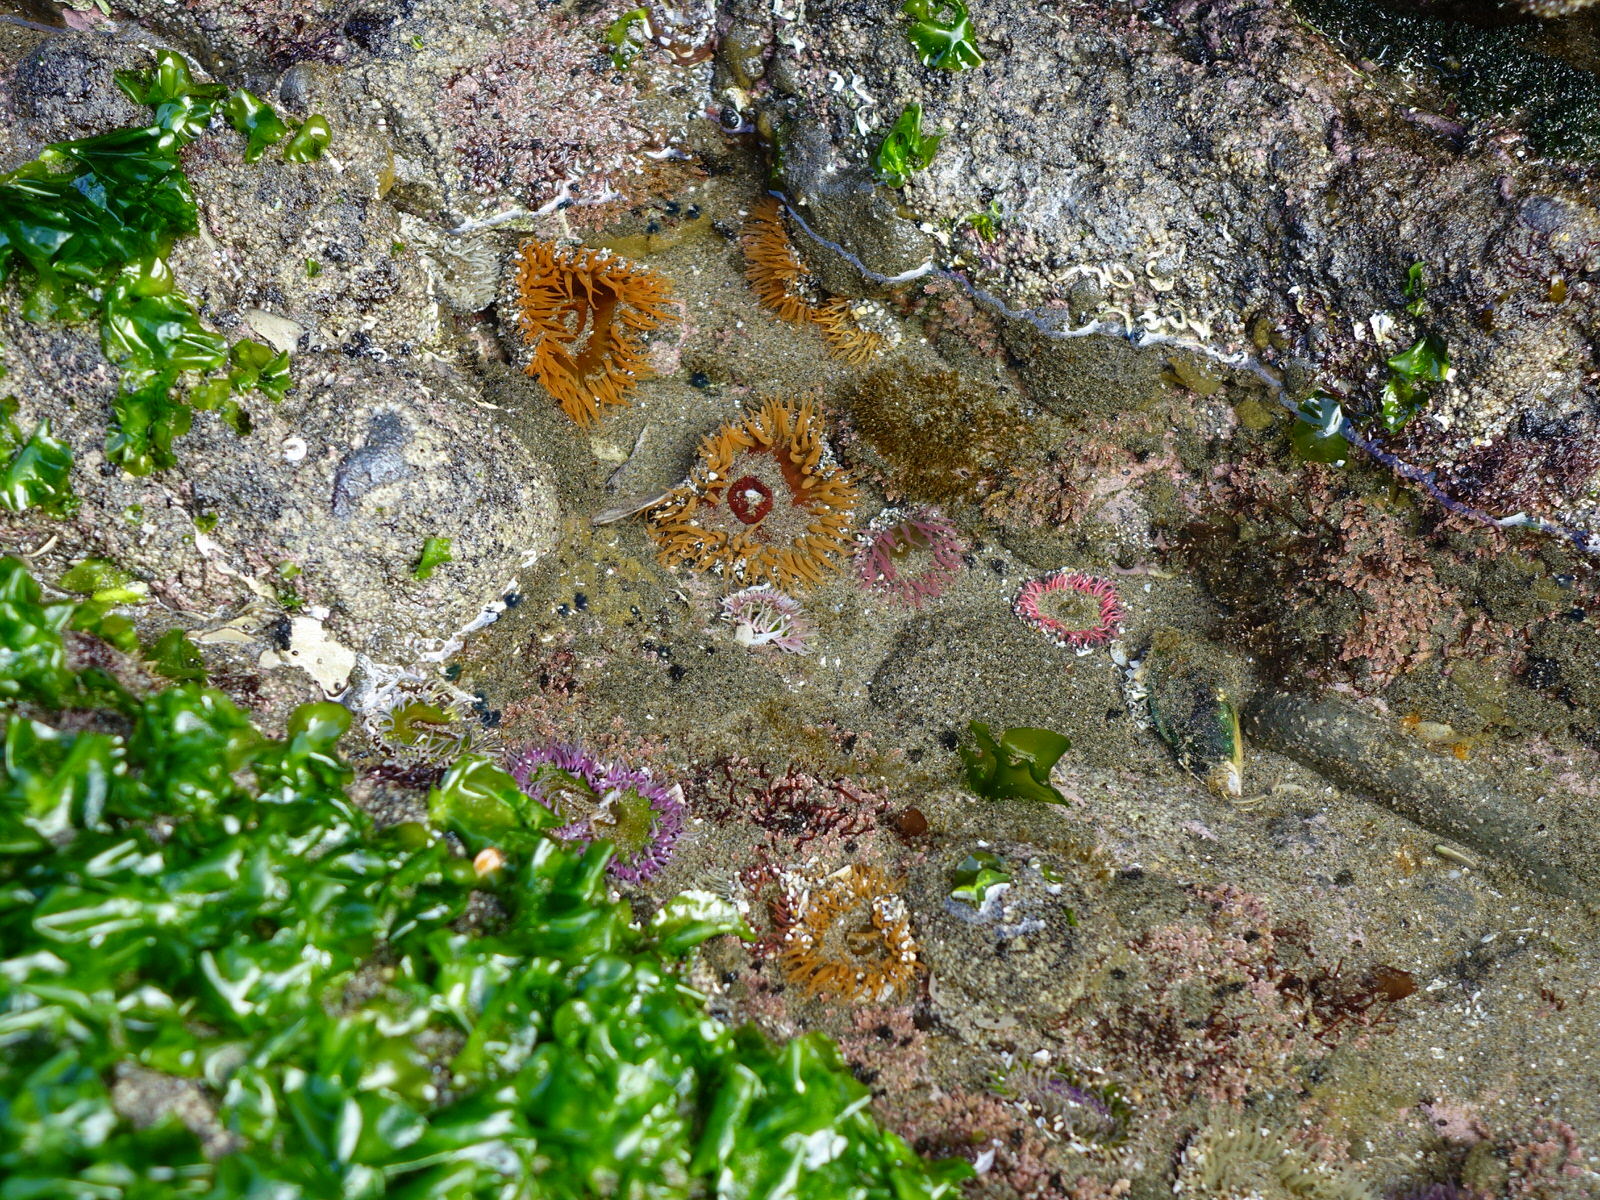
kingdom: Animalia
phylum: Cnidaria
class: Anthozoa
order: Actiniaria
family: Actiniidae
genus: Oulactis
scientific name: Oulactis magna
